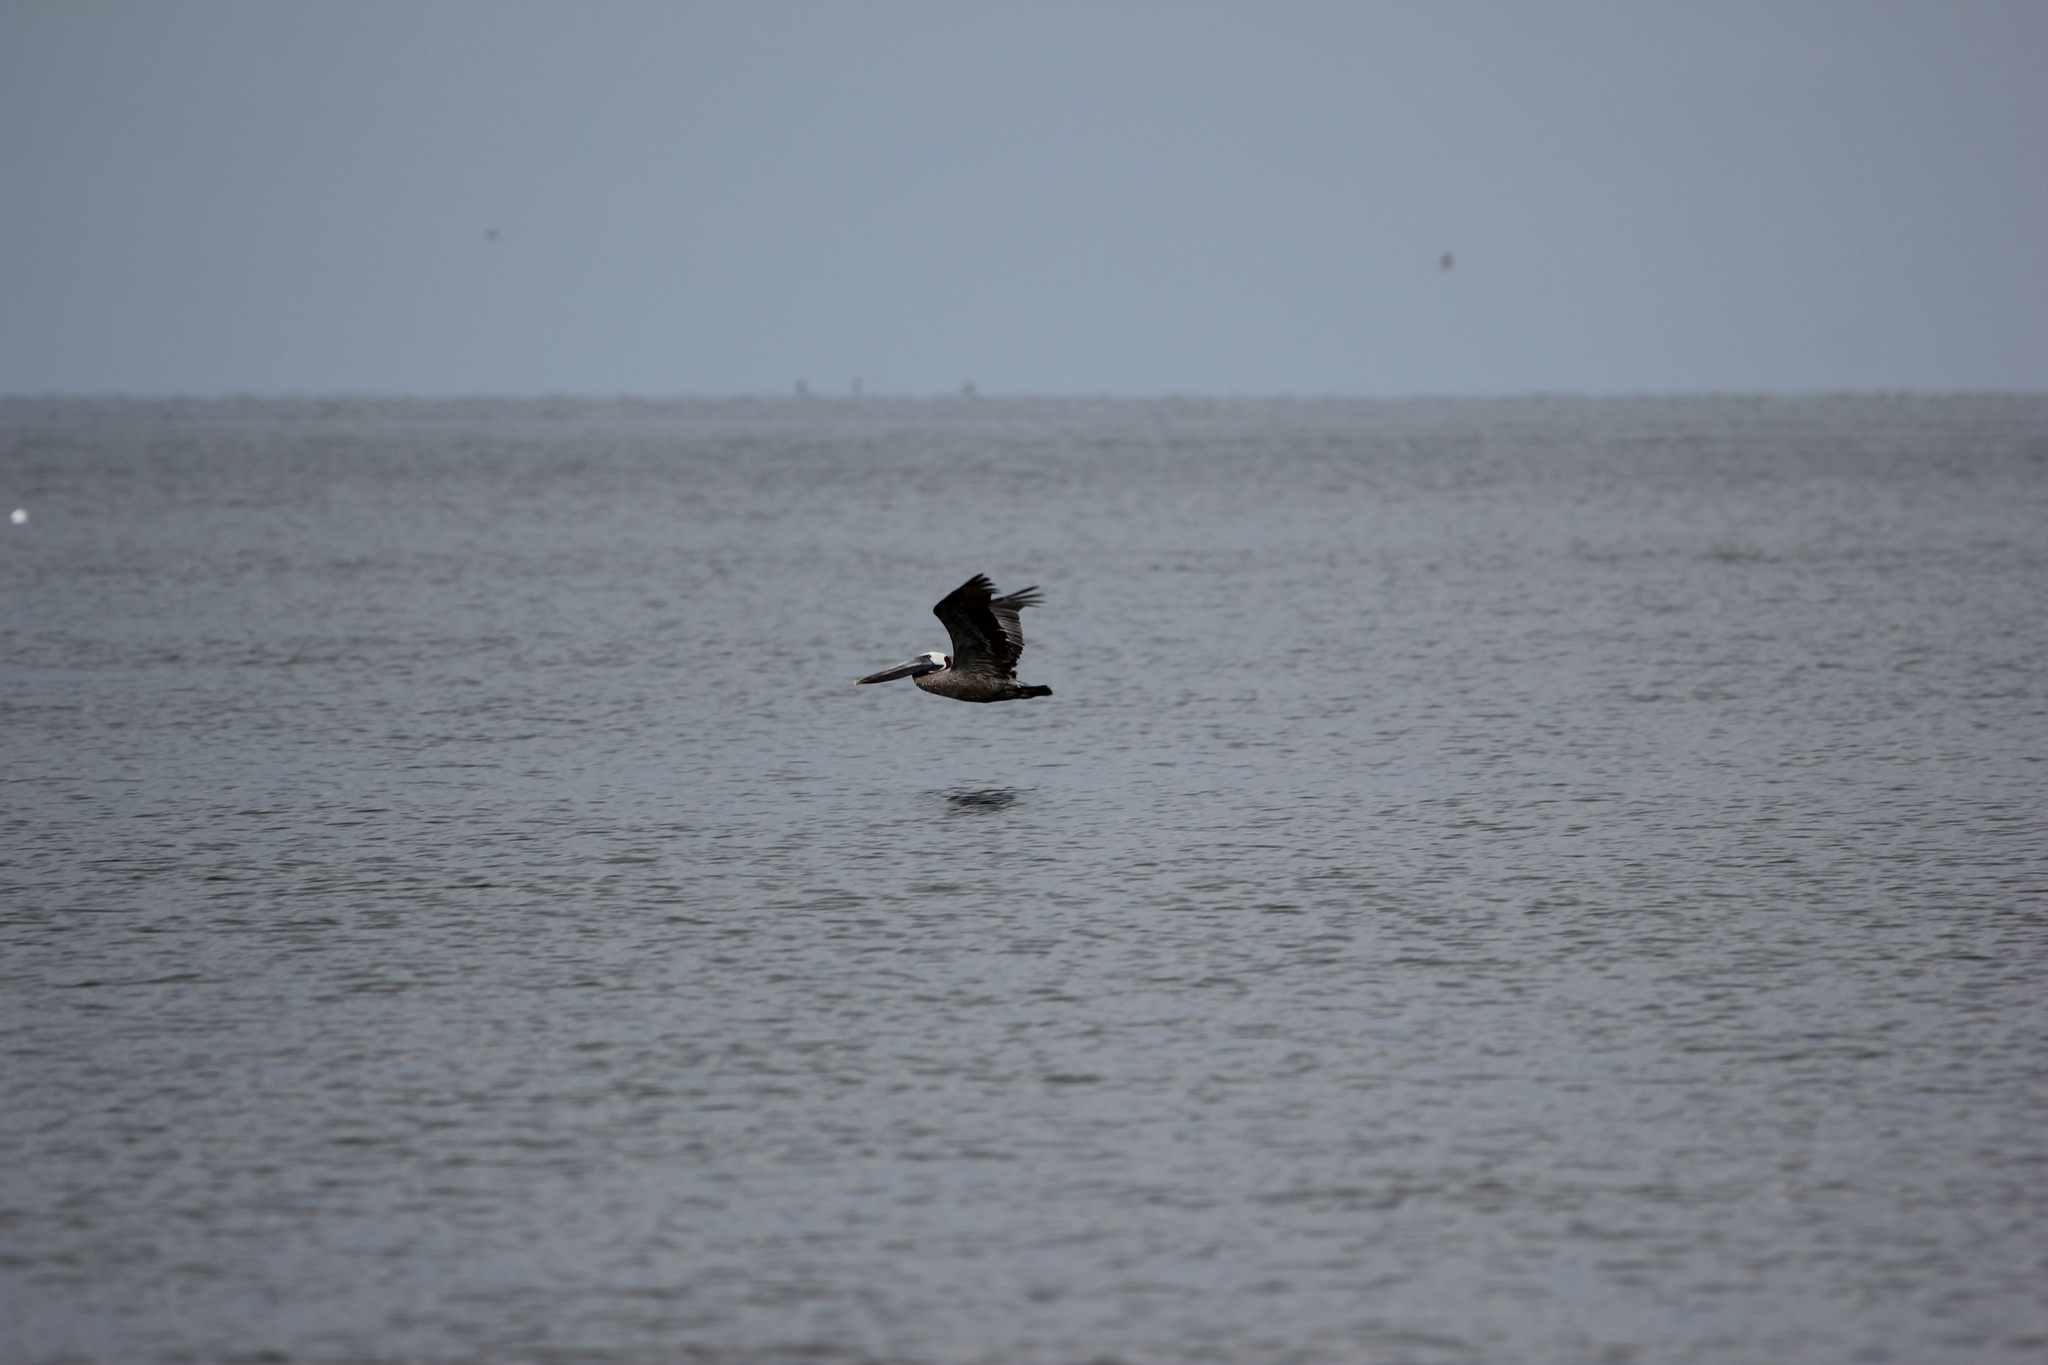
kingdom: Animalia
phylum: Chordata
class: Aves
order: Pelecaniformes
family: Pelecanidae
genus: Pelecanus
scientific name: Pelecanus occidentalis
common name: Brown pelican
